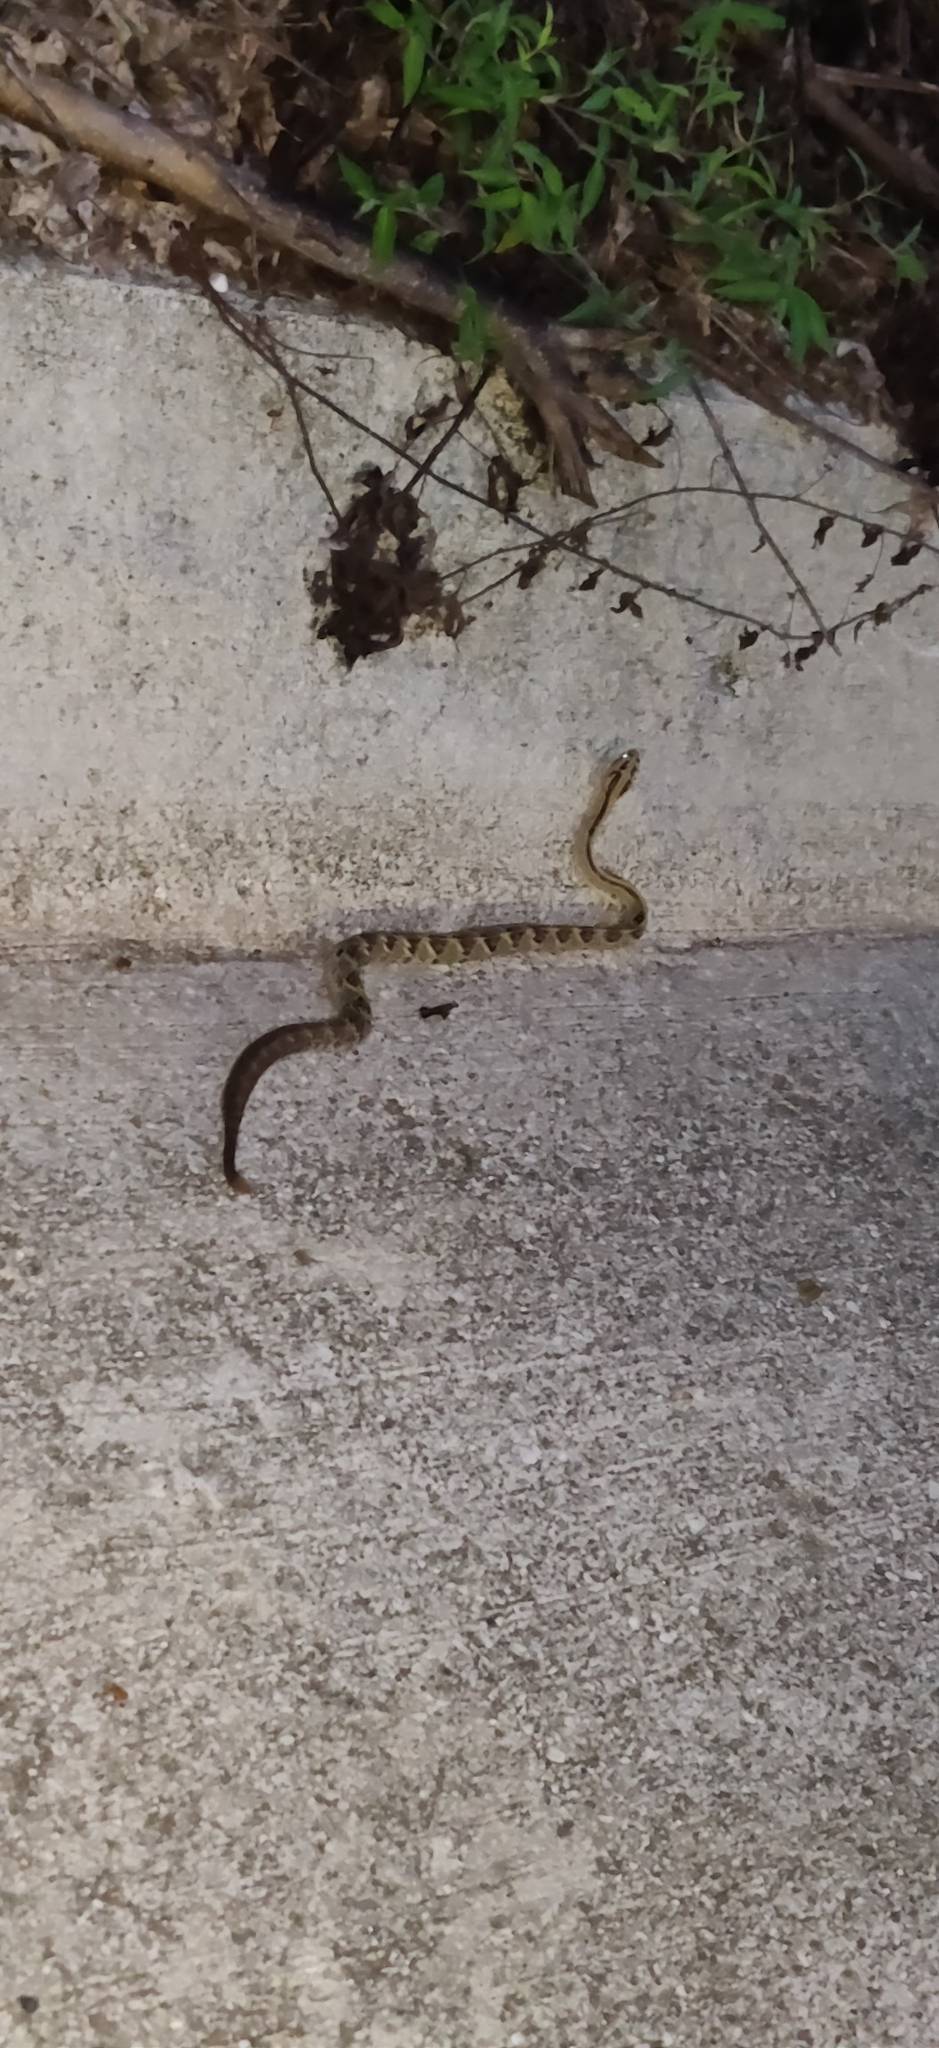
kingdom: Animalia
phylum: Chordata
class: Squamata
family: Viperidae
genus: Crotalus
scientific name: Crotalus simus
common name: Middle american rattlesnake
